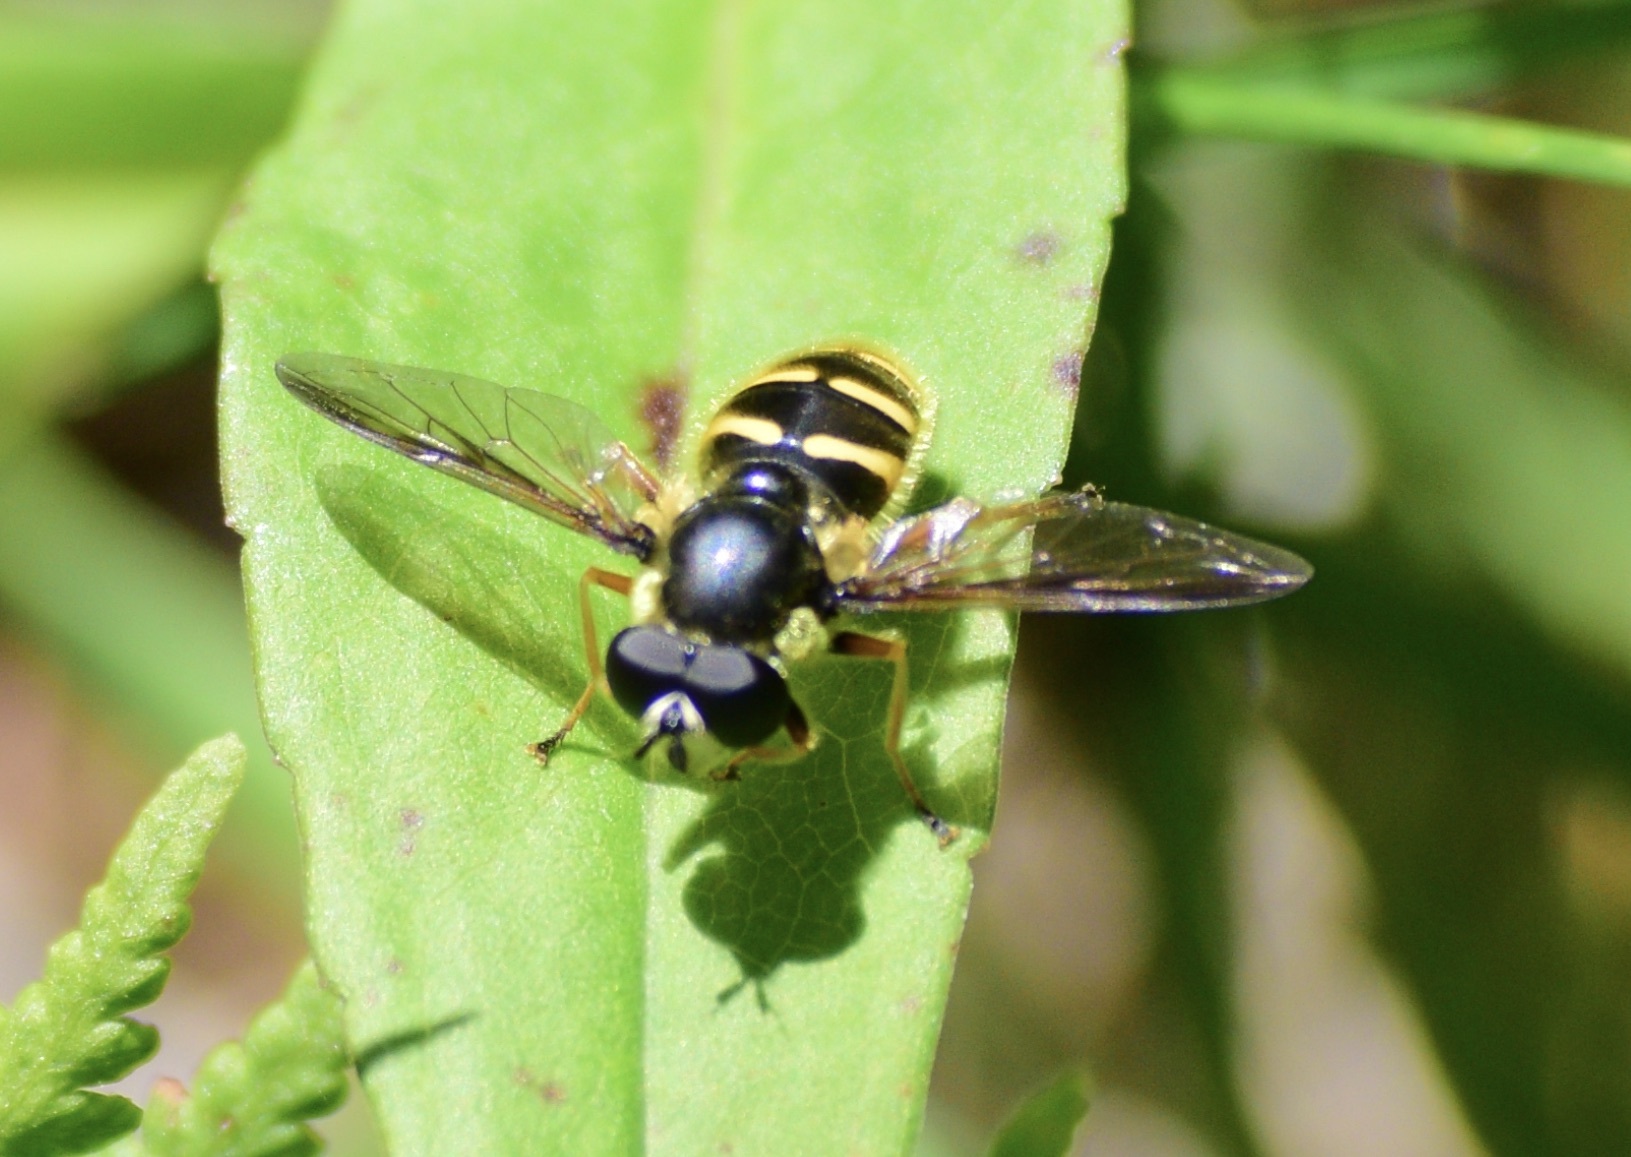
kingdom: Animalia
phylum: Arthropoda
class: Insecta
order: Diptera
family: Syrphidae
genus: Sericomyia
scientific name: Sericomyia chrysotoxoides
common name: Oblique-banded pond fly
